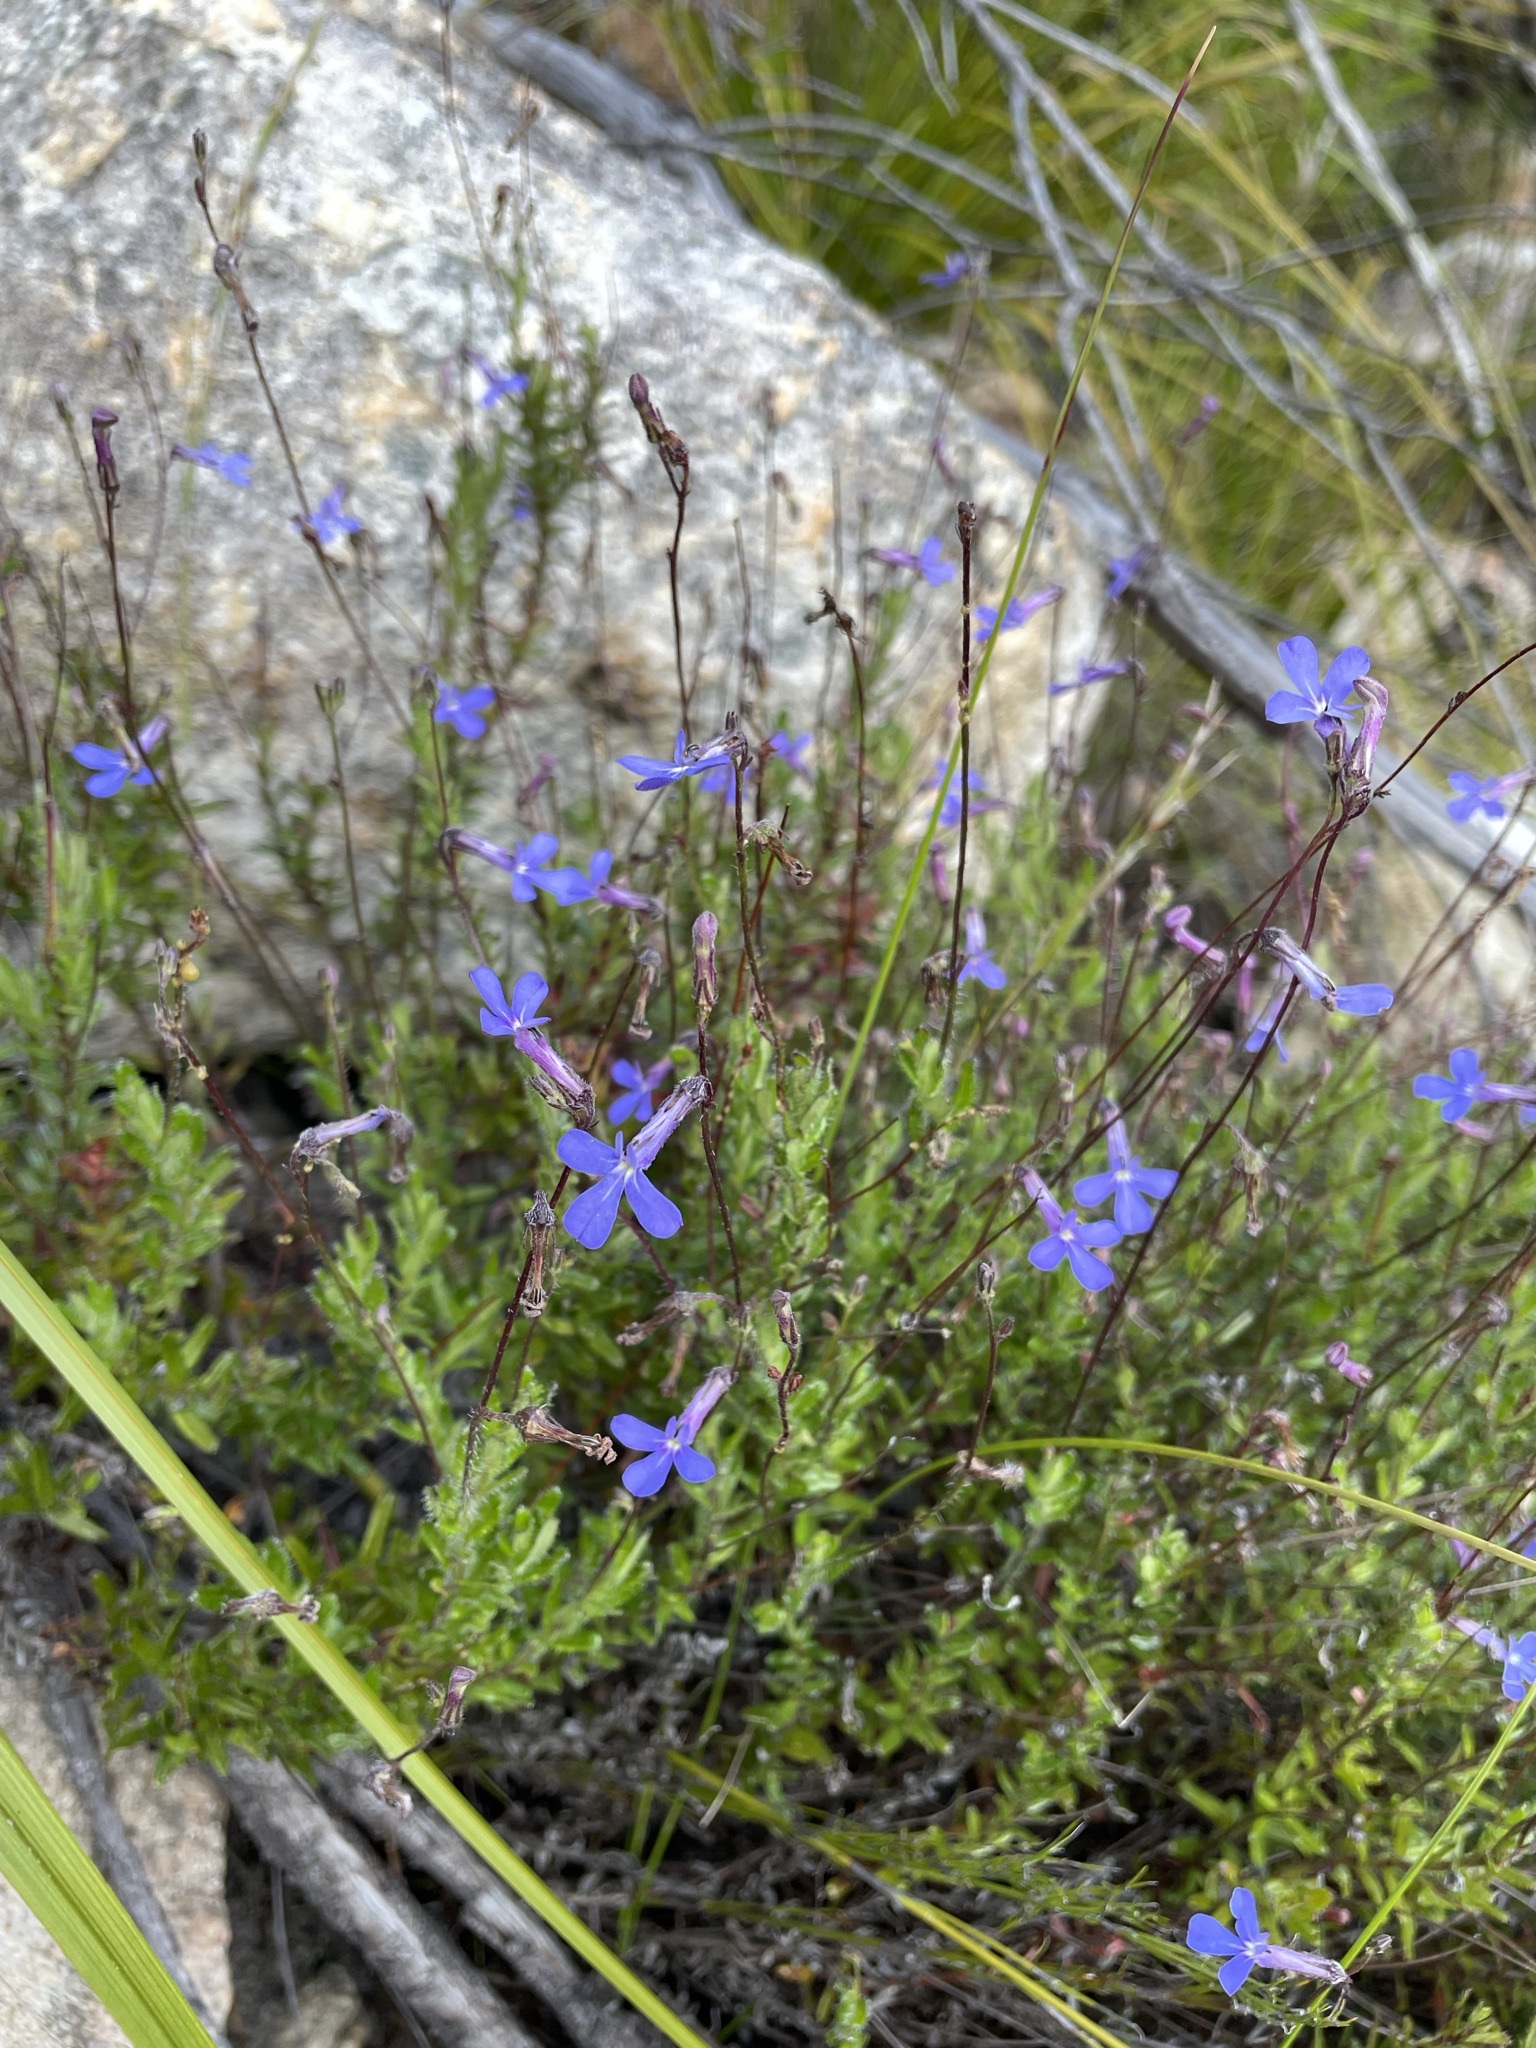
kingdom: Plantae
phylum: Tracheophyta
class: Magnoliopsida
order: Asterales
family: Campanulaceae
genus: Lobelia
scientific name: Lobelia neglecta
